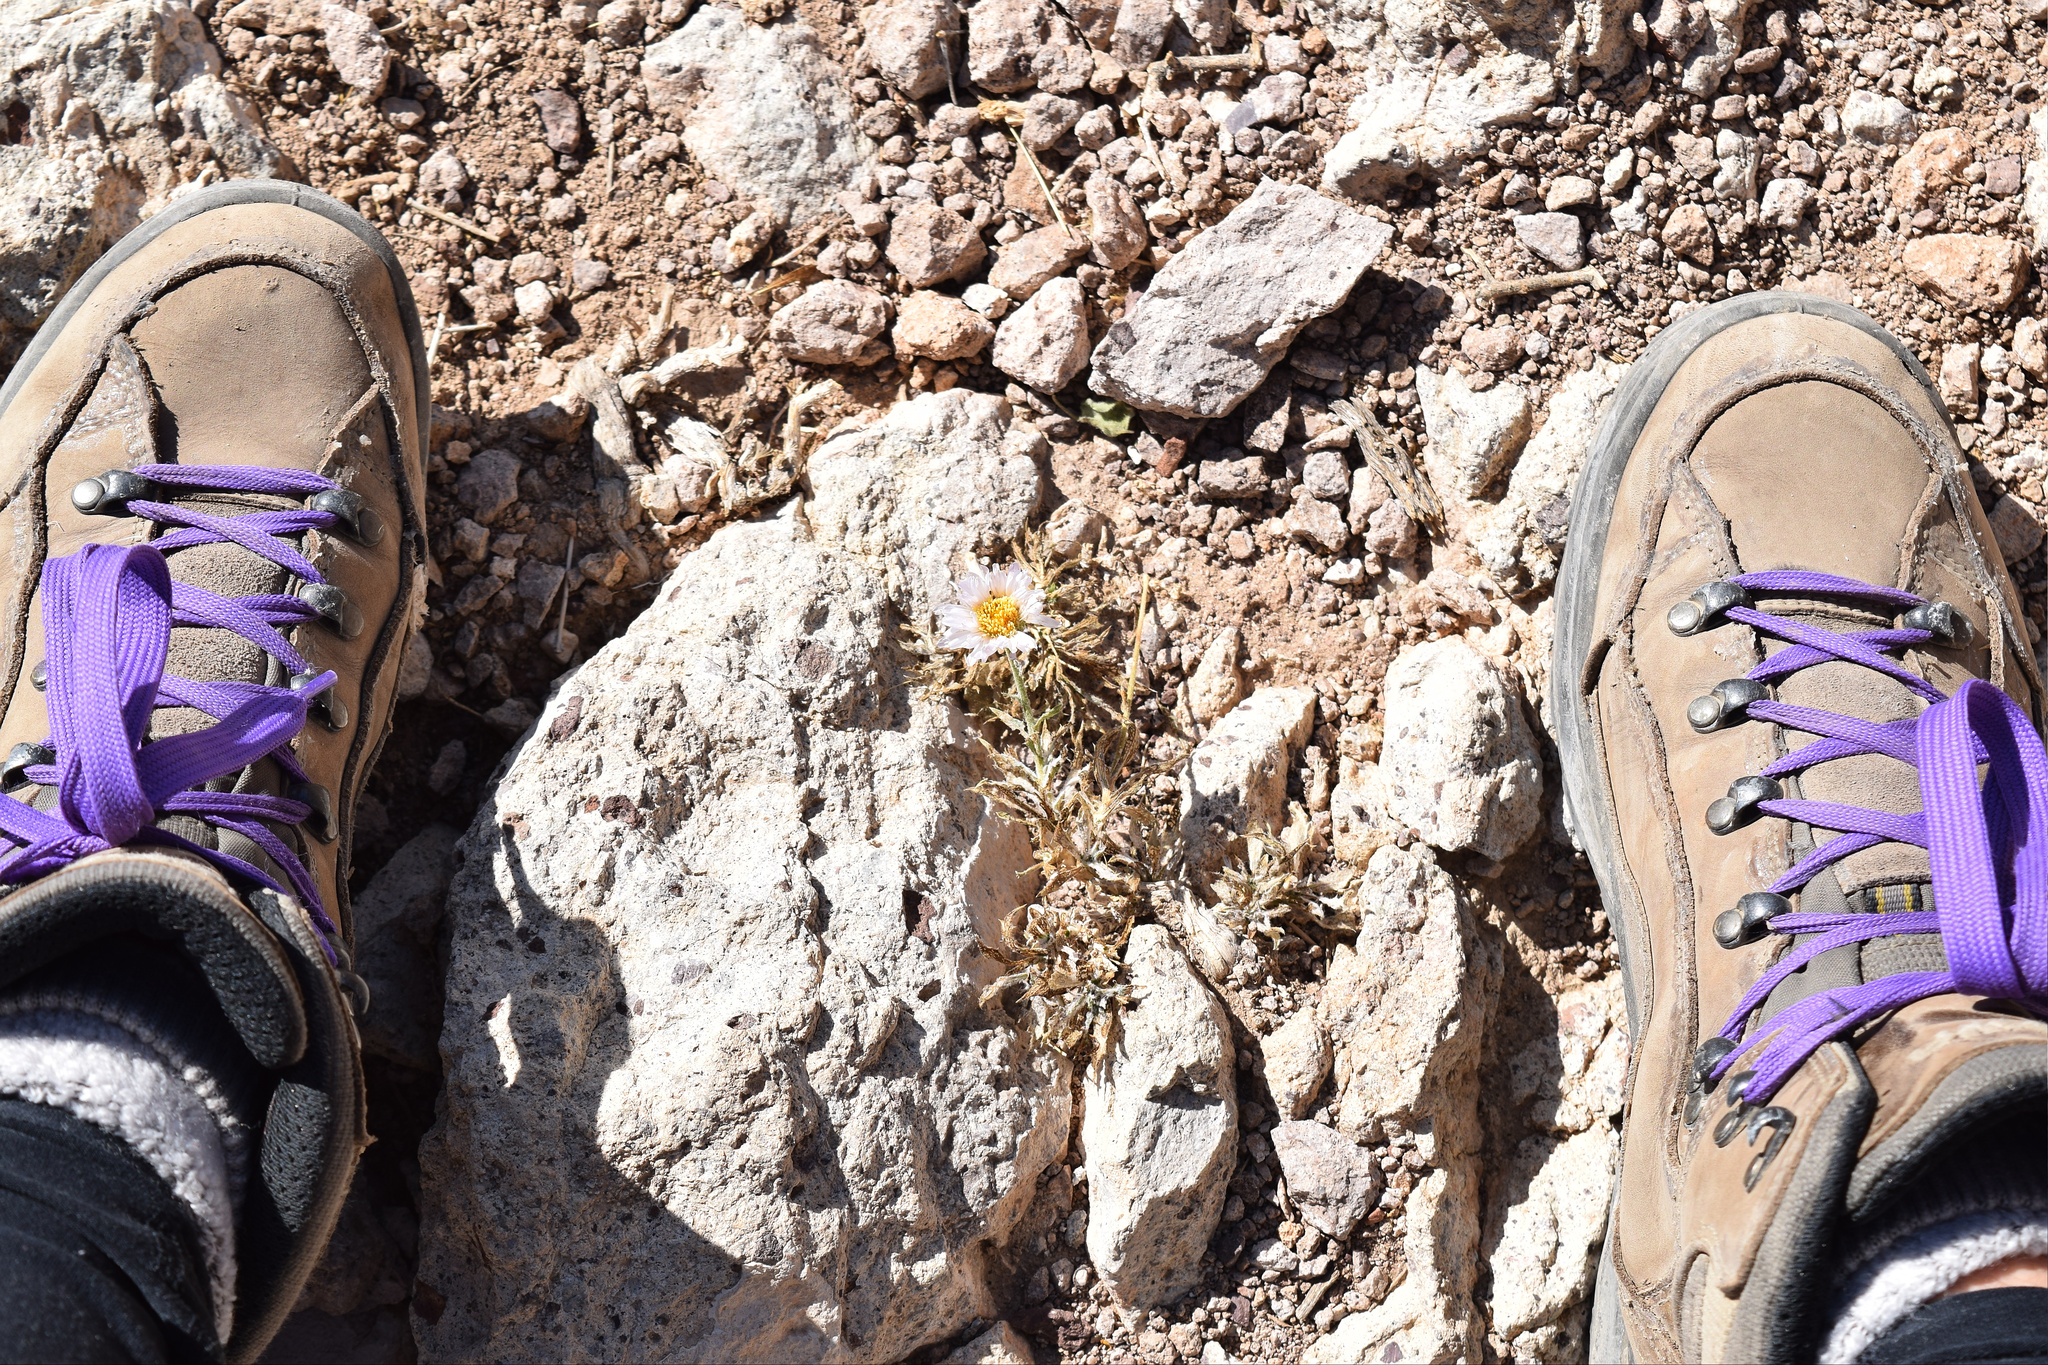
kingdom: Plantae
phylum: Tracheophyta
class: Magnoliopsida
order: Asterales
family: Asteraceae
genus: Xylorhiza
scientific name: Xylorhiza tortifolia
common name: Hurt-leaf woody-aster
